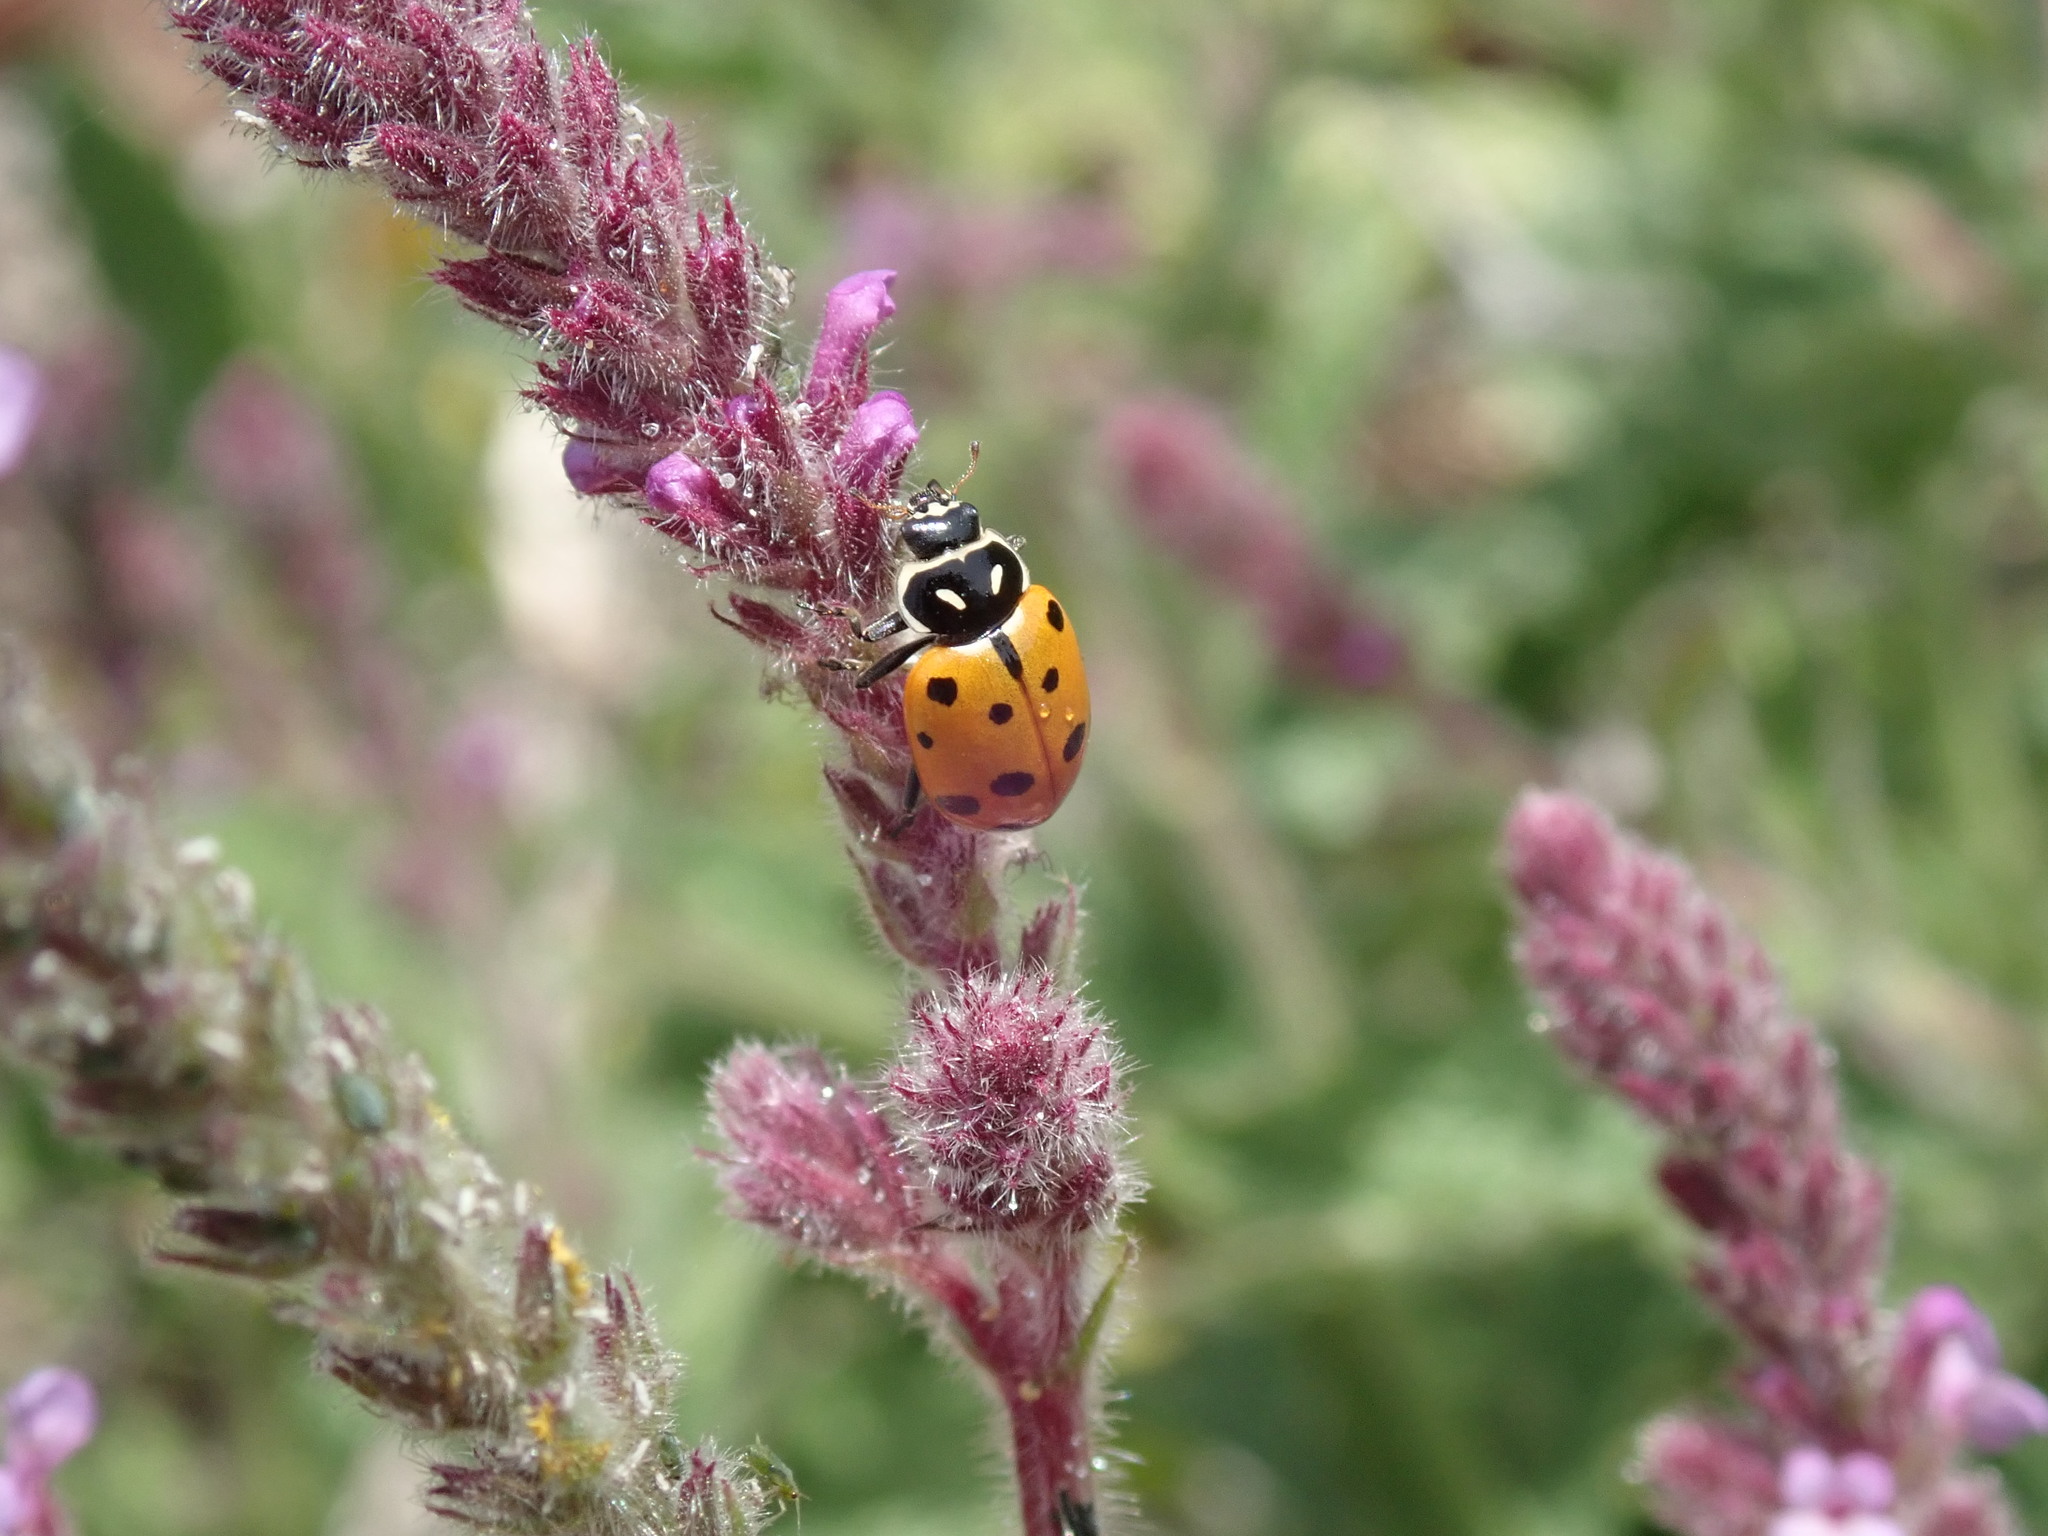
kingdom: Animalia
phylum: Arthropoda
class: Insecta
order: Coleoptera
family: Coccinellidae
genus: Hippodamia
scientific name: Hippodamia convergens
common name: Convergent lady beetle
